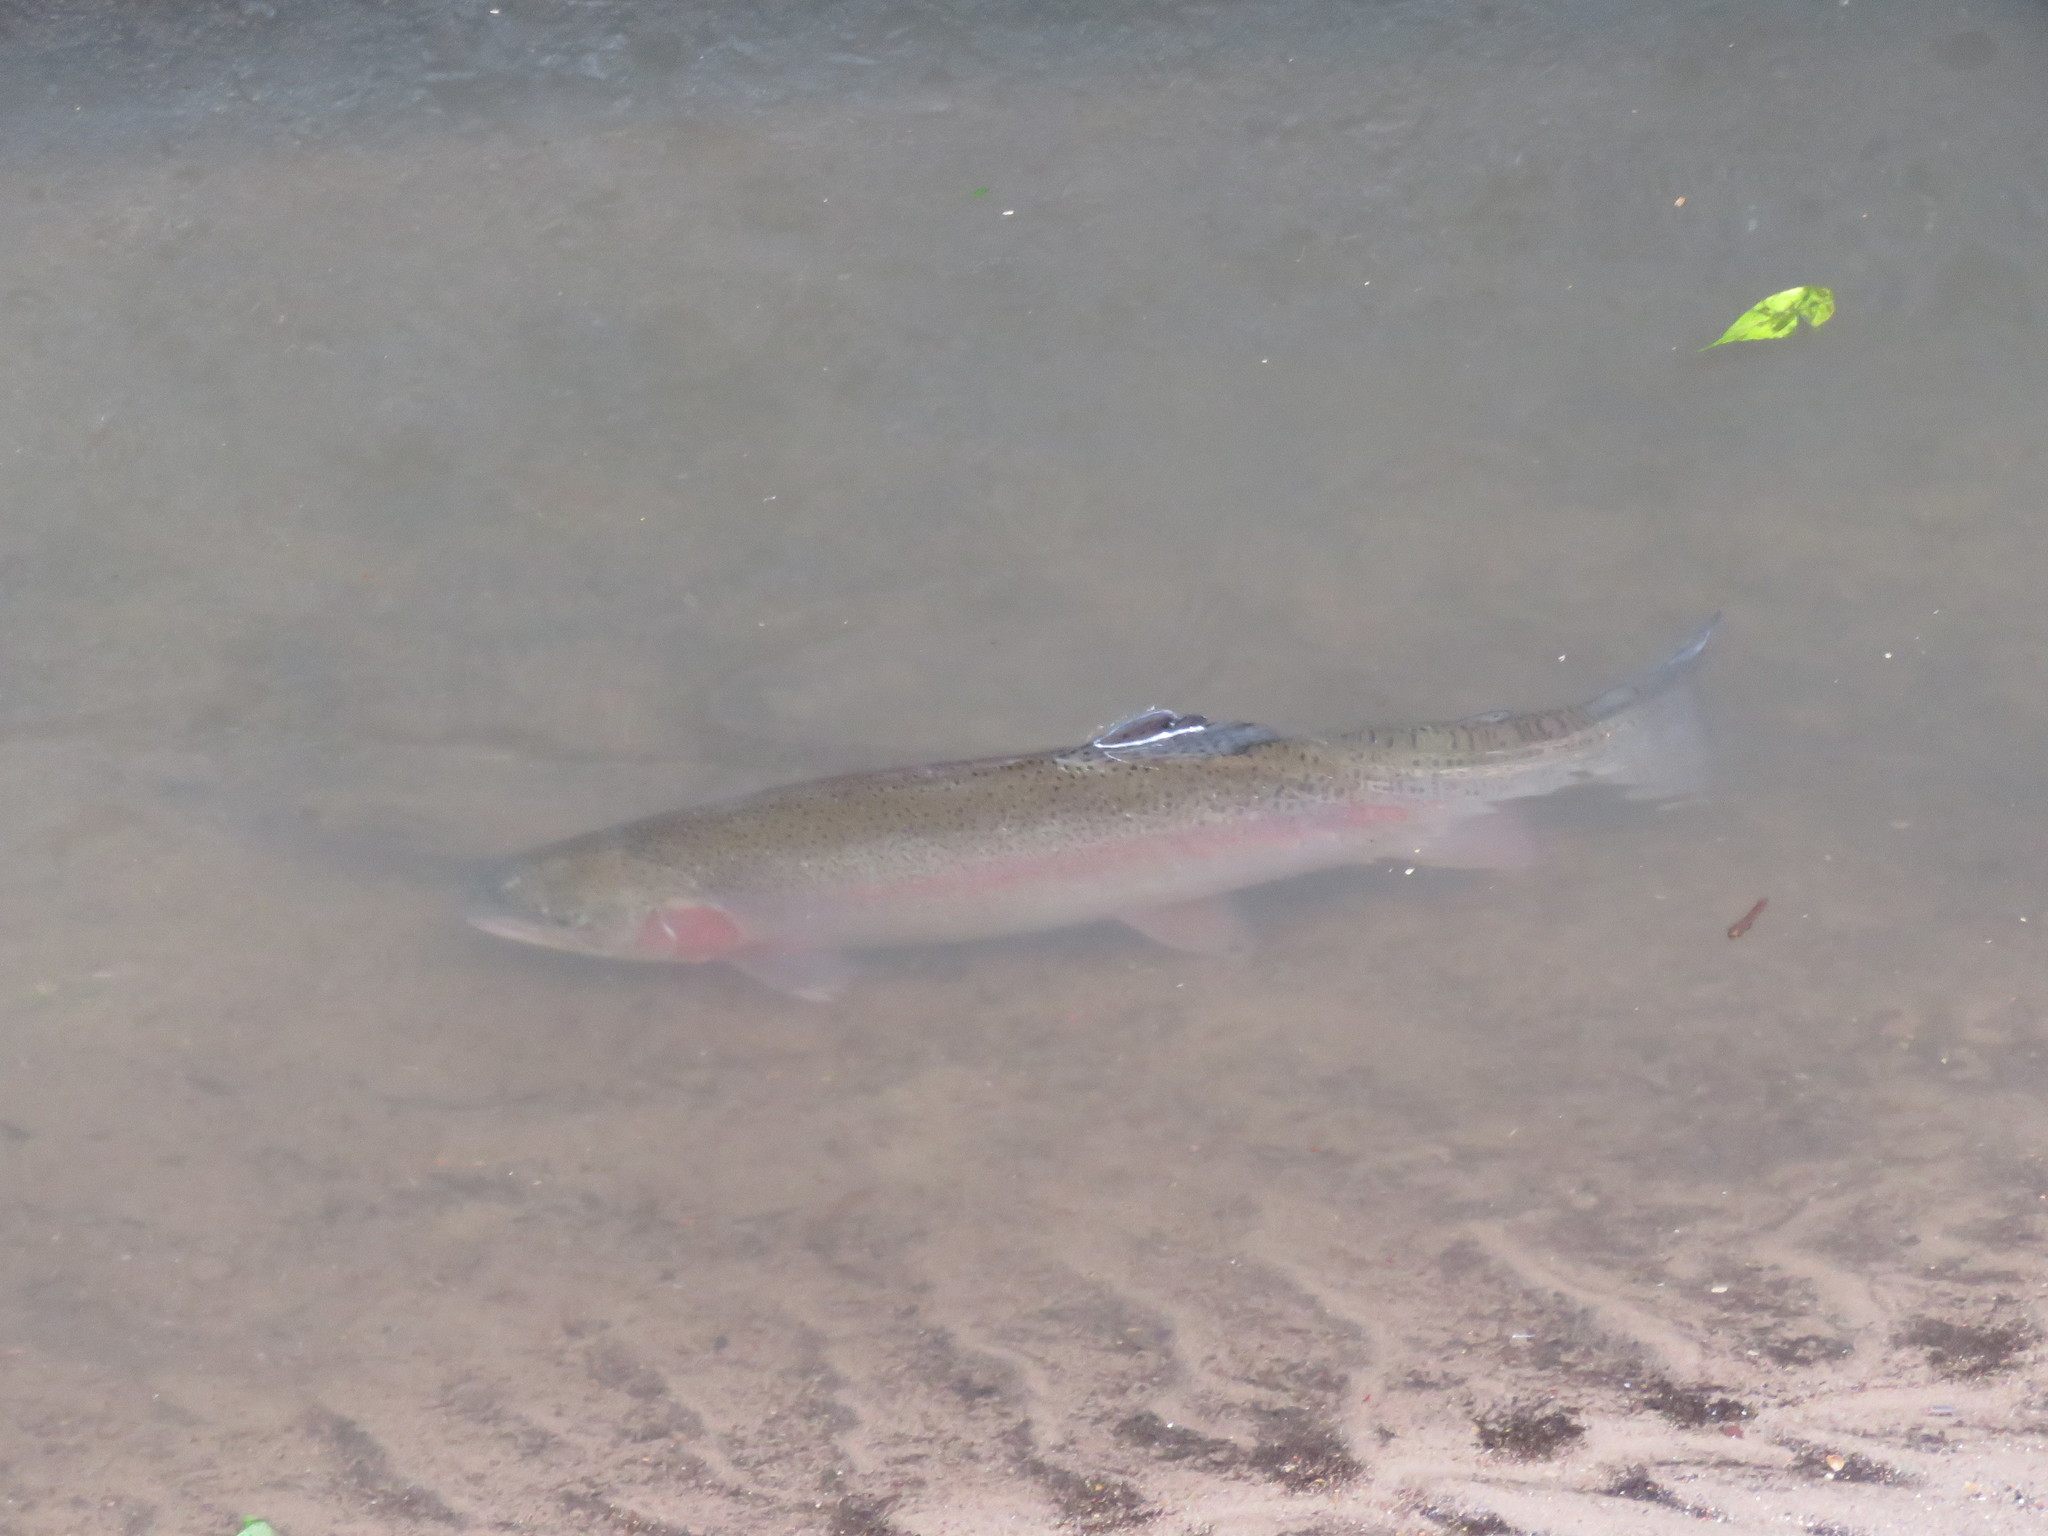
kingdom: Animalia
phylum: Chordata
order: Salmoniformes
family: Salmonidae
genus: Oncorhynchus
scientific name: Oncorhynchus mykiss
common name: Rainbow trout
